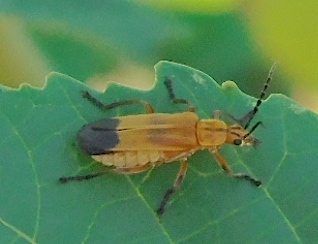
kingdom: Animalia
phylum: Arthropoda
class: Insecta
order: Coleoptera
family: Cantharidae
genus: Daiphron
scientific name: Daiphron proteum
